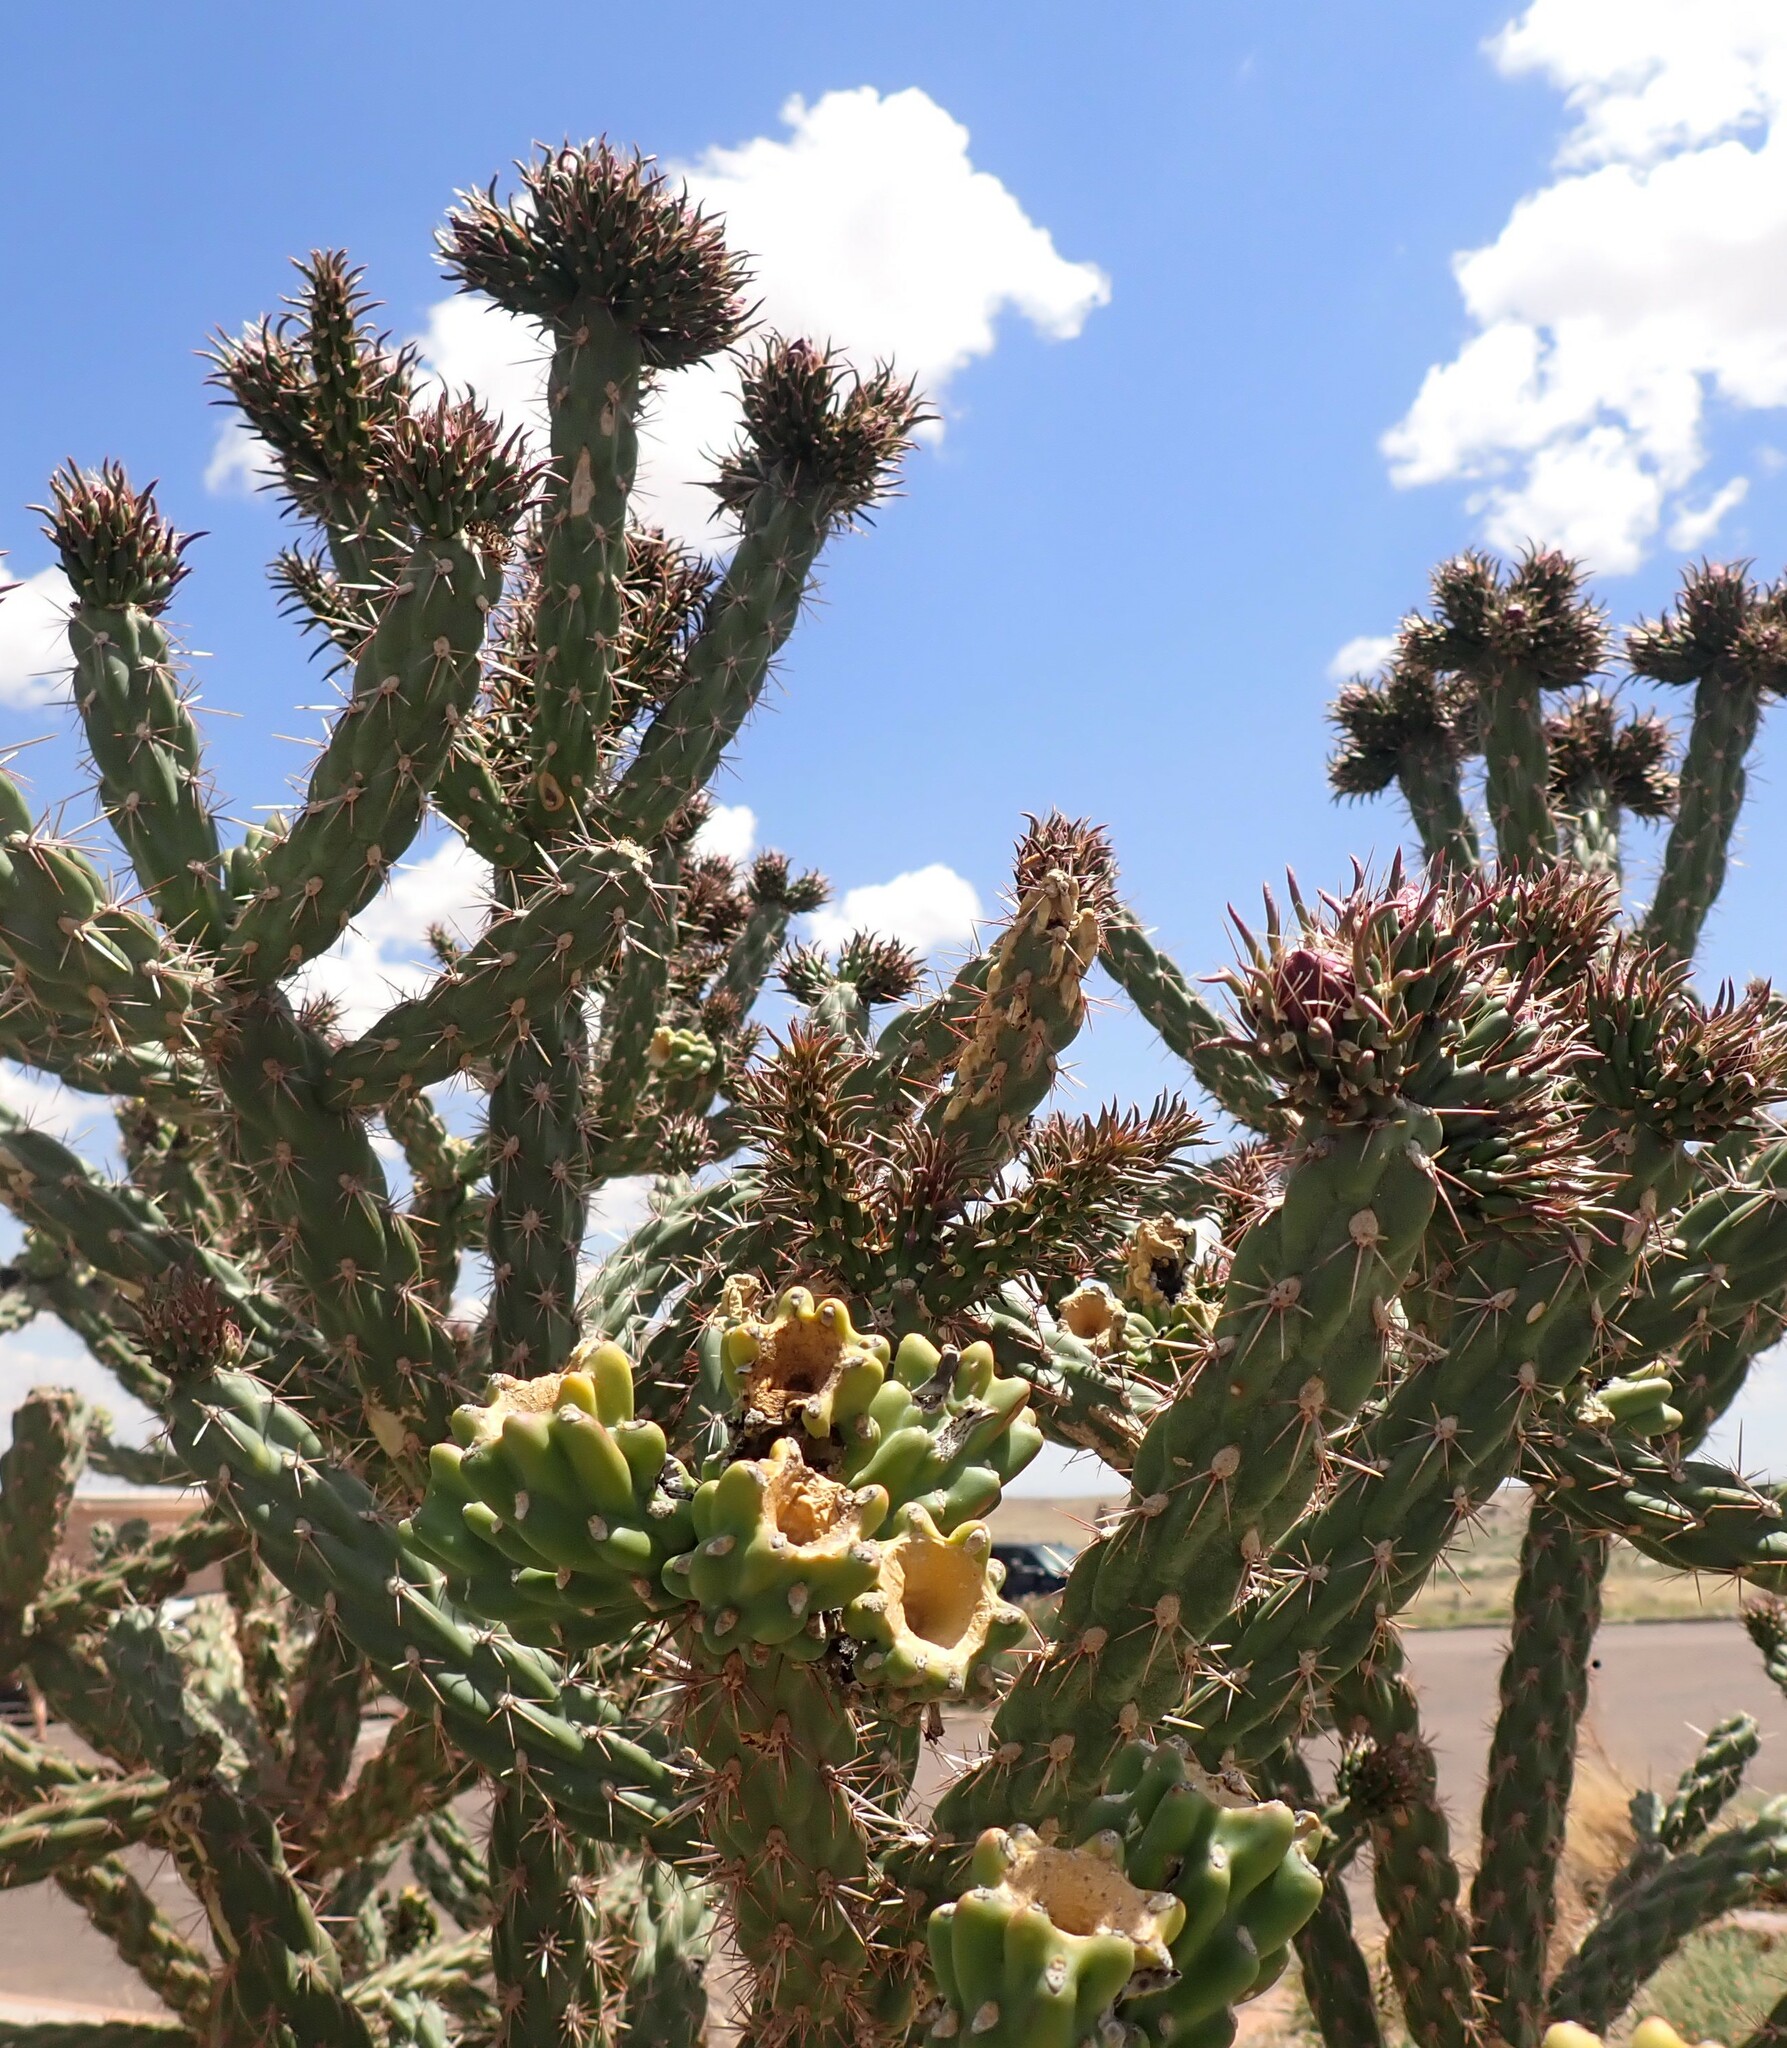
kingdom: Plantae
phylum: Tracheophyta
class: Magnoliopsida
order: Caryophyllales
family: Cactaceae
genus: Cylindropuntia
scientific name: Cylindropuntia imbricata
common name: Candelabrum cactus
